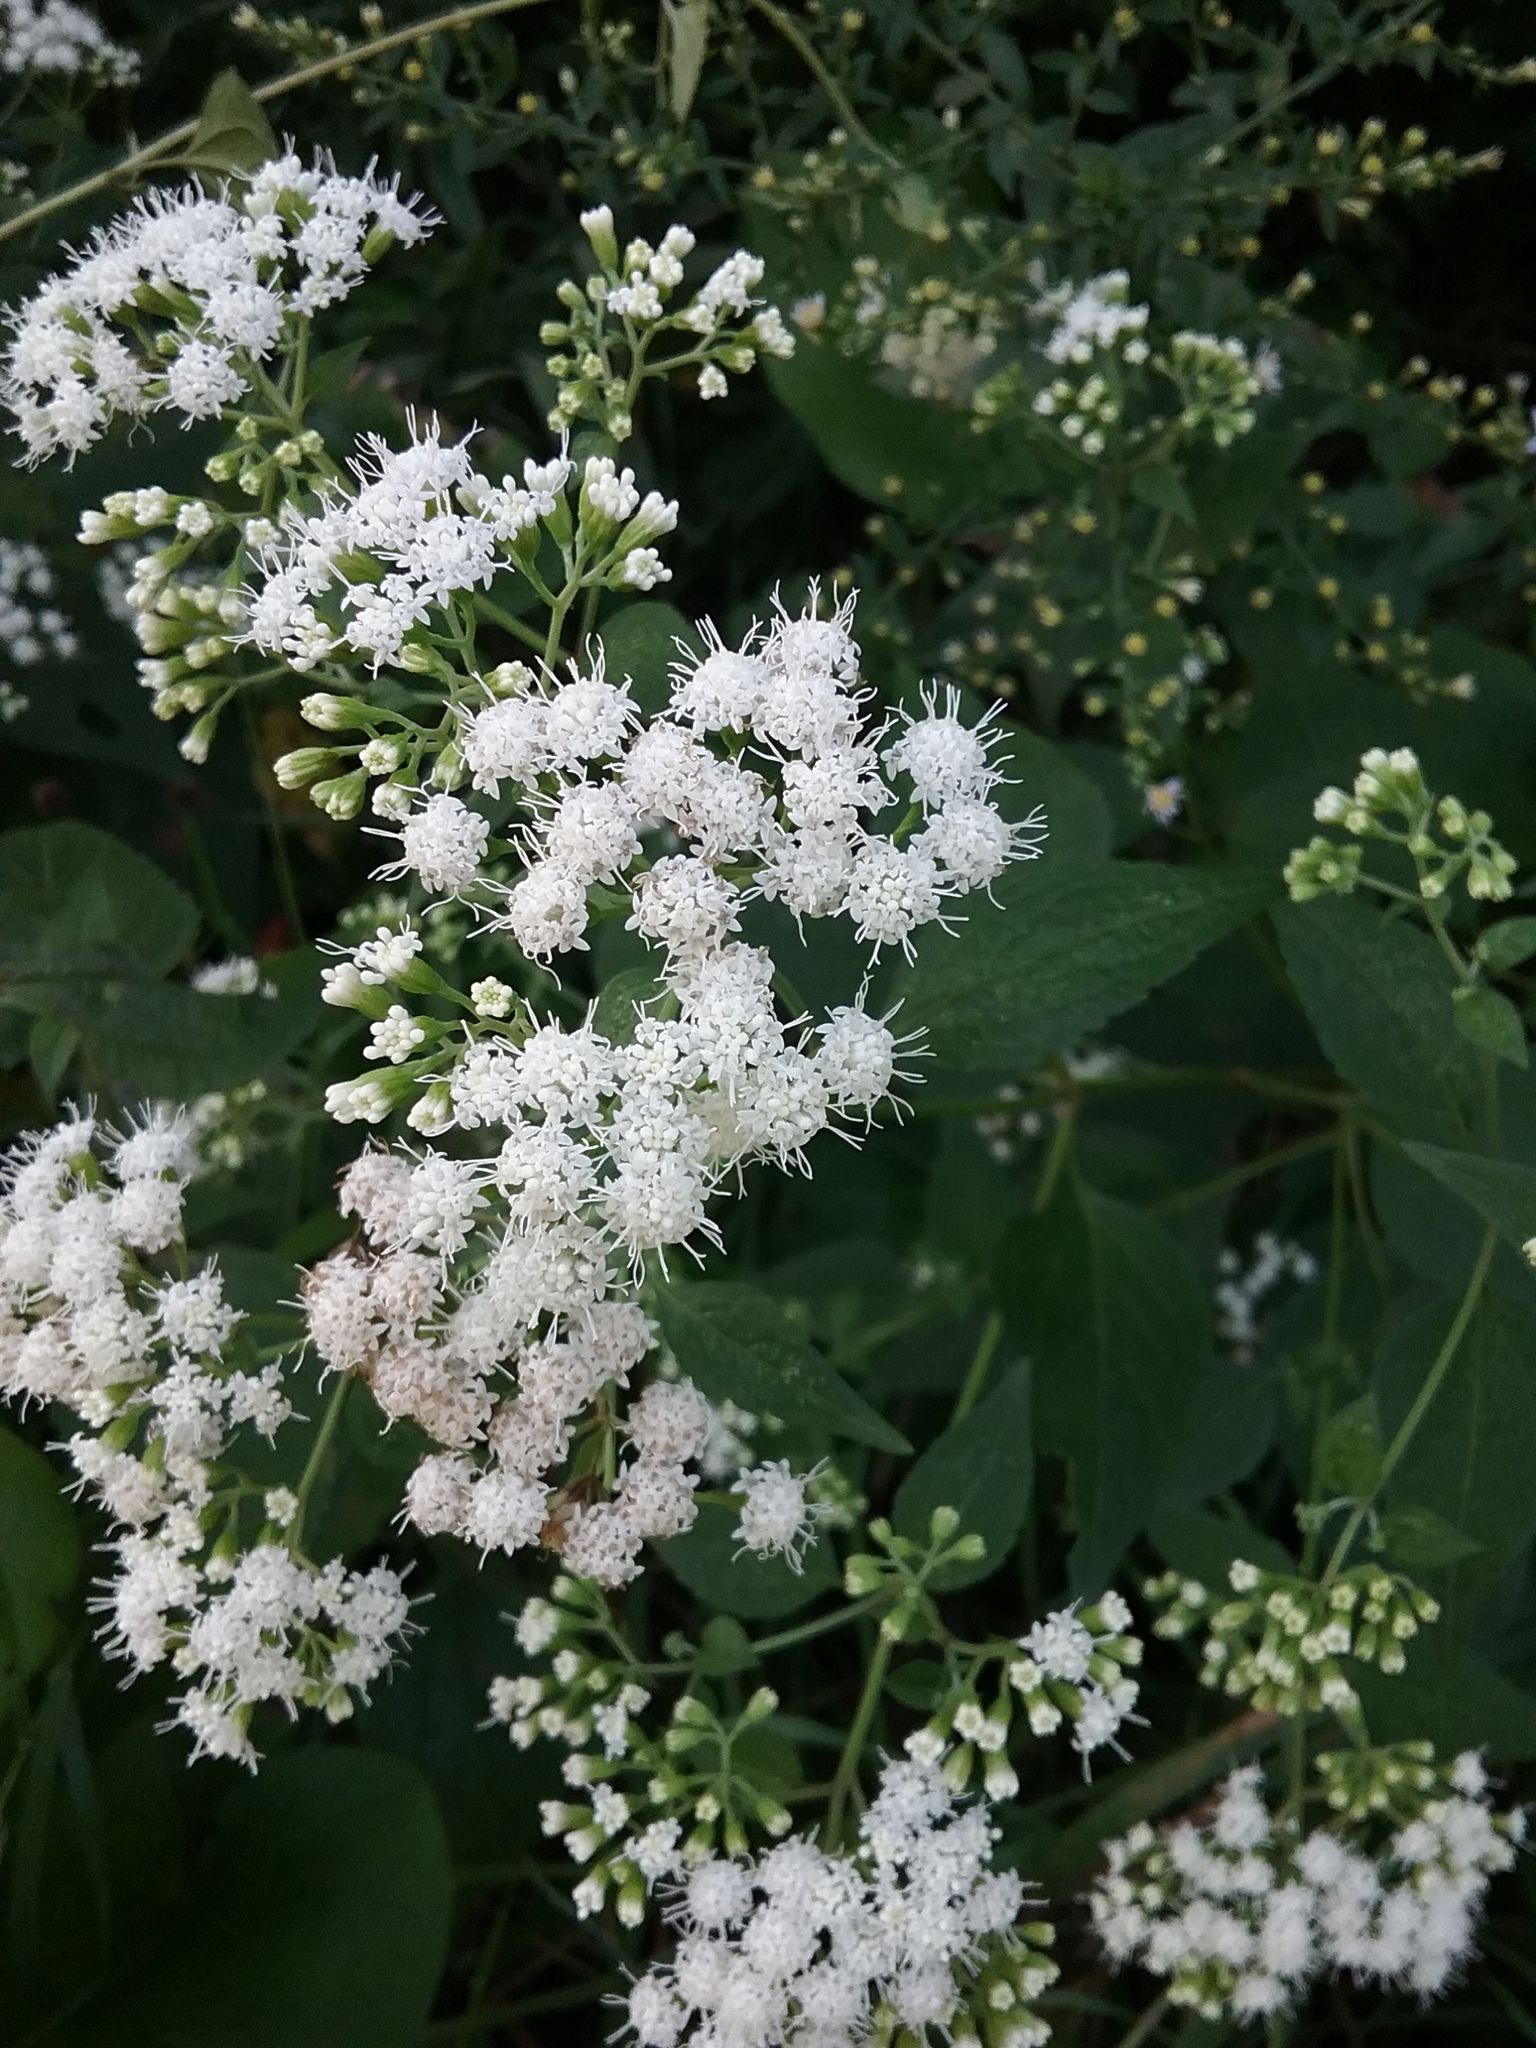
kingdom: Plantae
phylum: Tracheophyta
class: Magnoliopsida
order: Asterales
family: Asteraceae
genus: Ageratina
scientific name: Ageratina altissima
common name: White snakeroot
